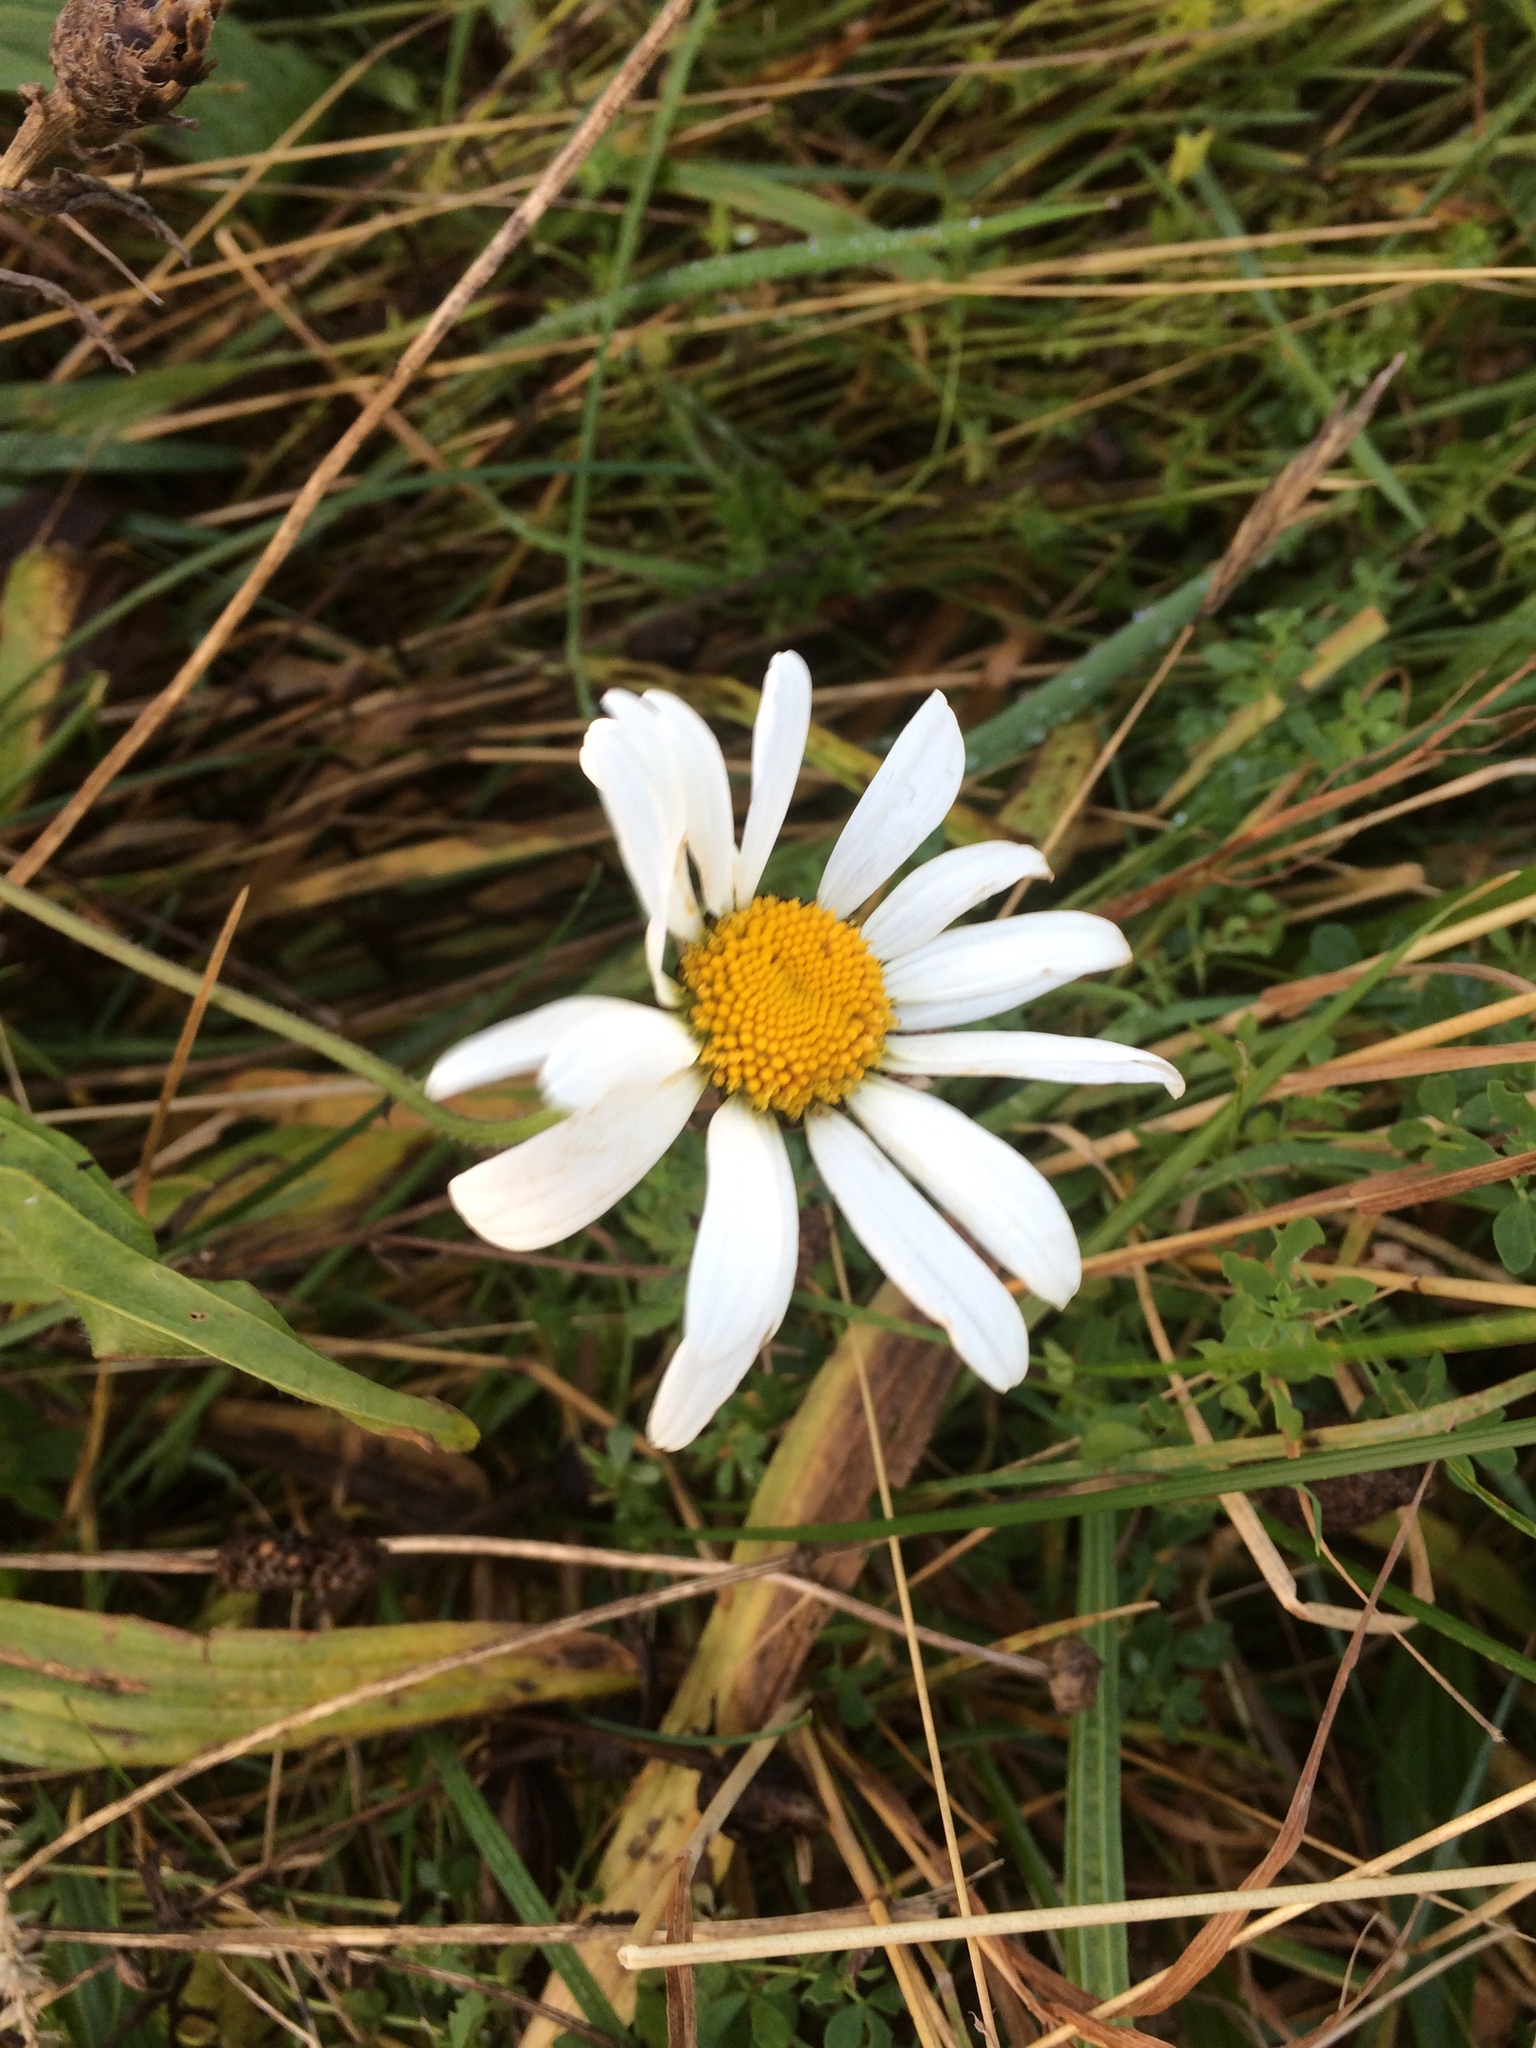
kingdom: Plantae
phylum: Tracheophyta
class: Magnoliopsida
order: Asterales
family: Asteraceae
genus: Leucanthemum
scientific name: Leucanthemum vulgare
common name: Oxeye daisy
